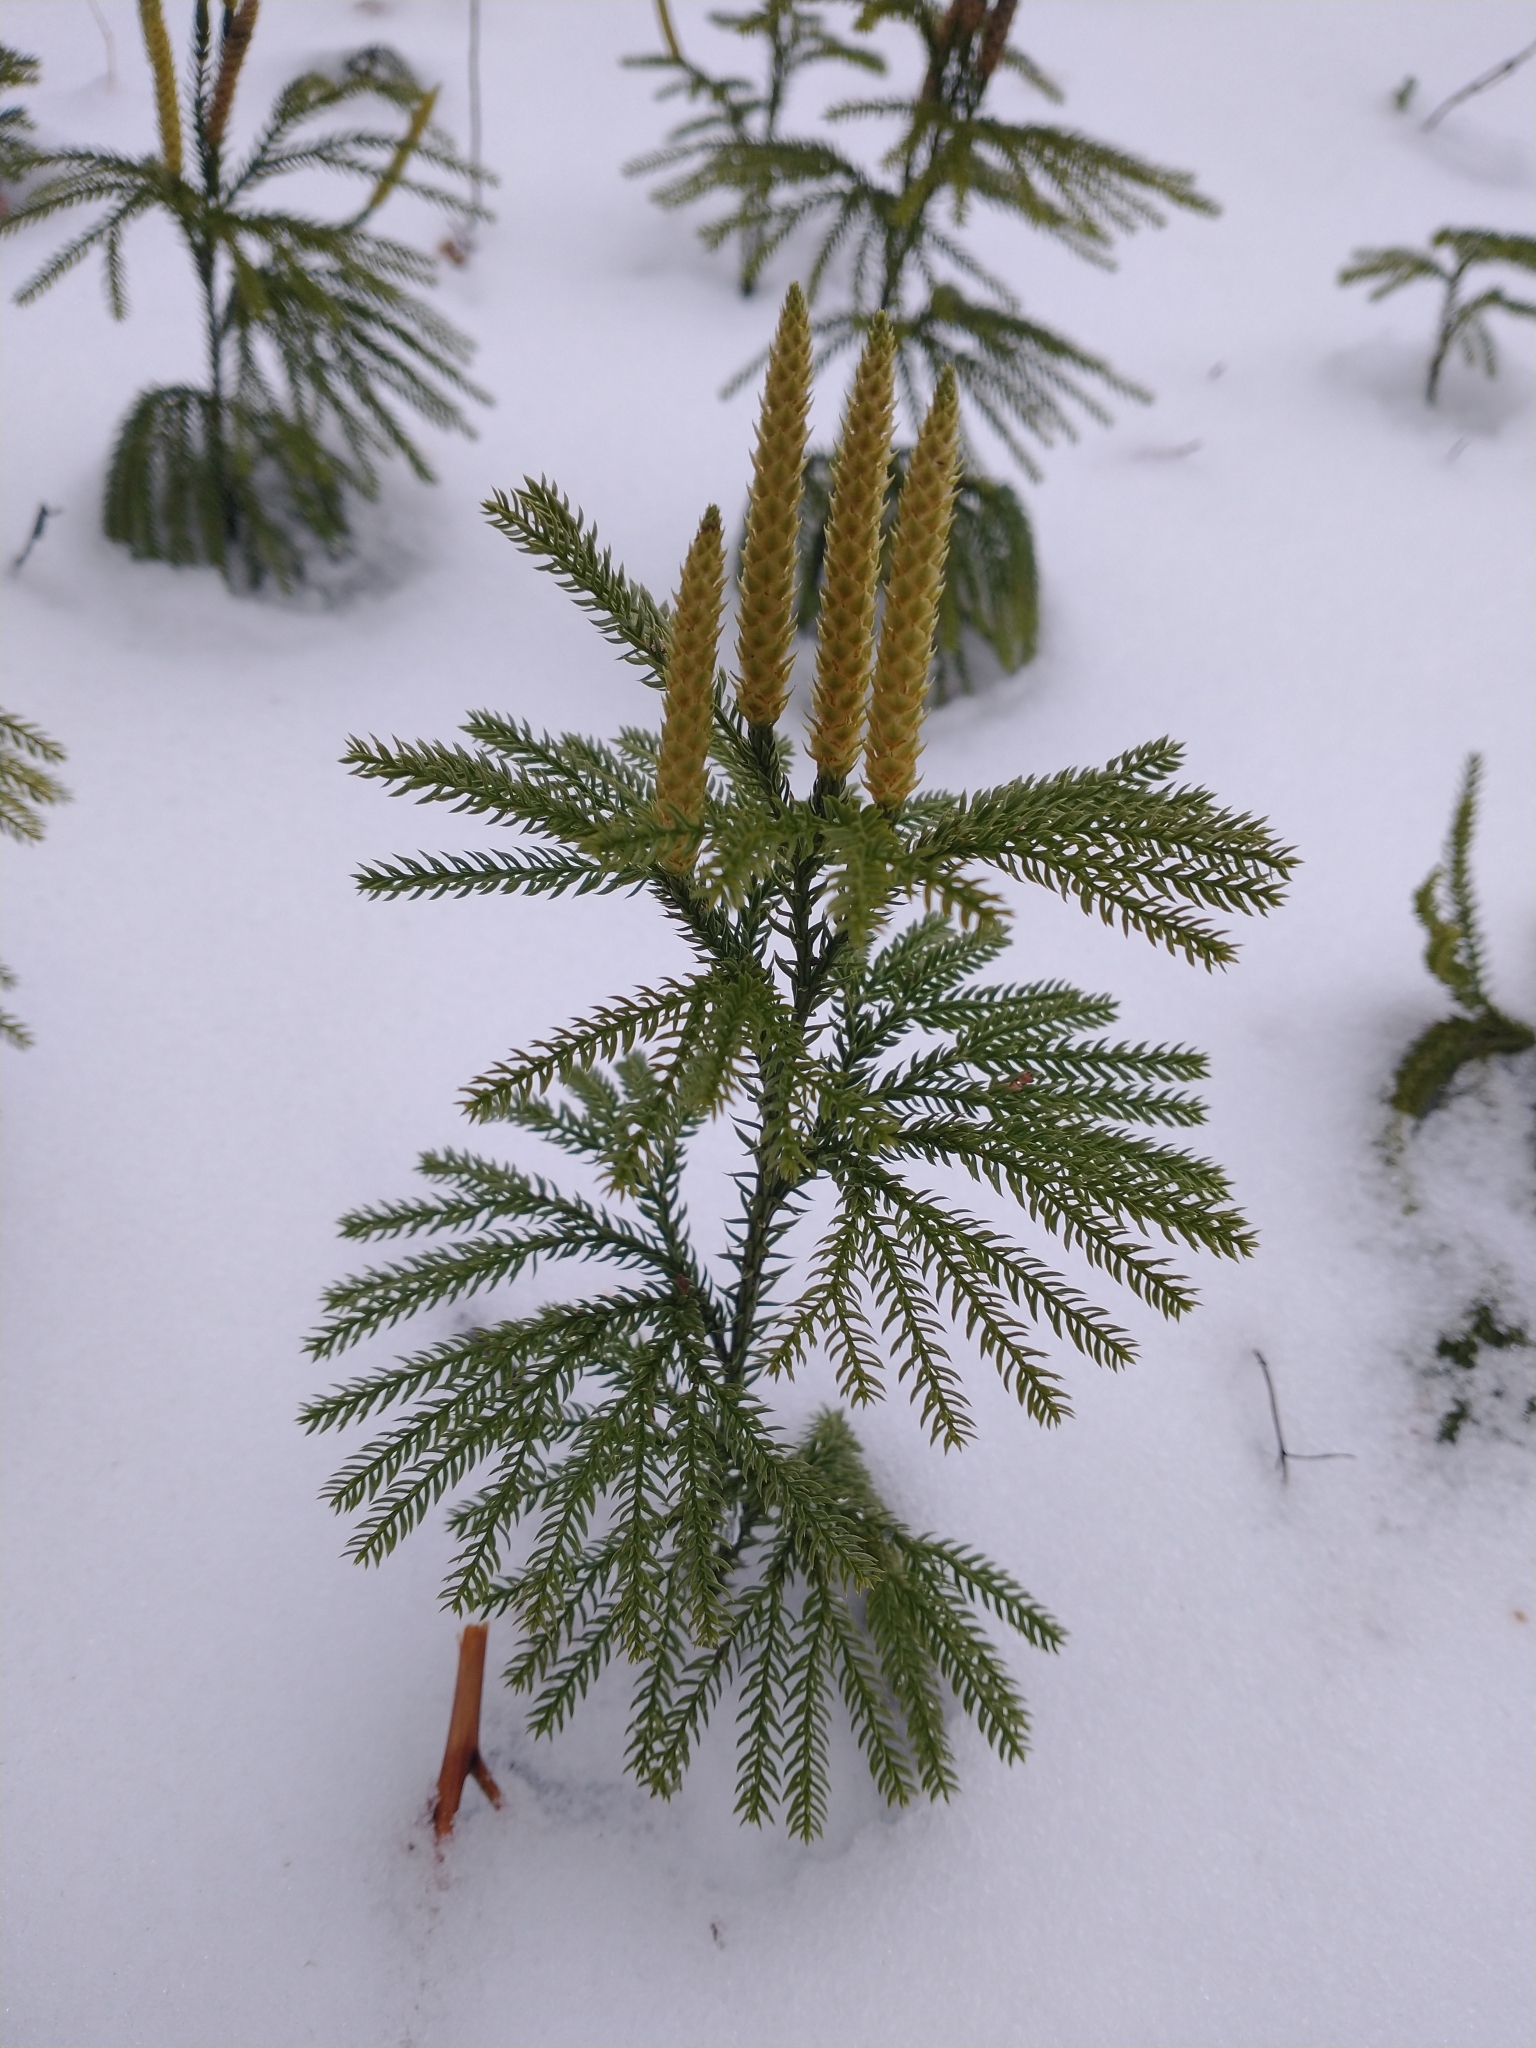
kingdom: Plantae
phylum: Tracheophyta
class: Lycopodiopsida
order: Lycopodiales
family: Lycopodiaceae
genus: Dendrolycopodium
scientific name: Dendrolycopodium dendroideum
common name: Northern tree-clubmoss
